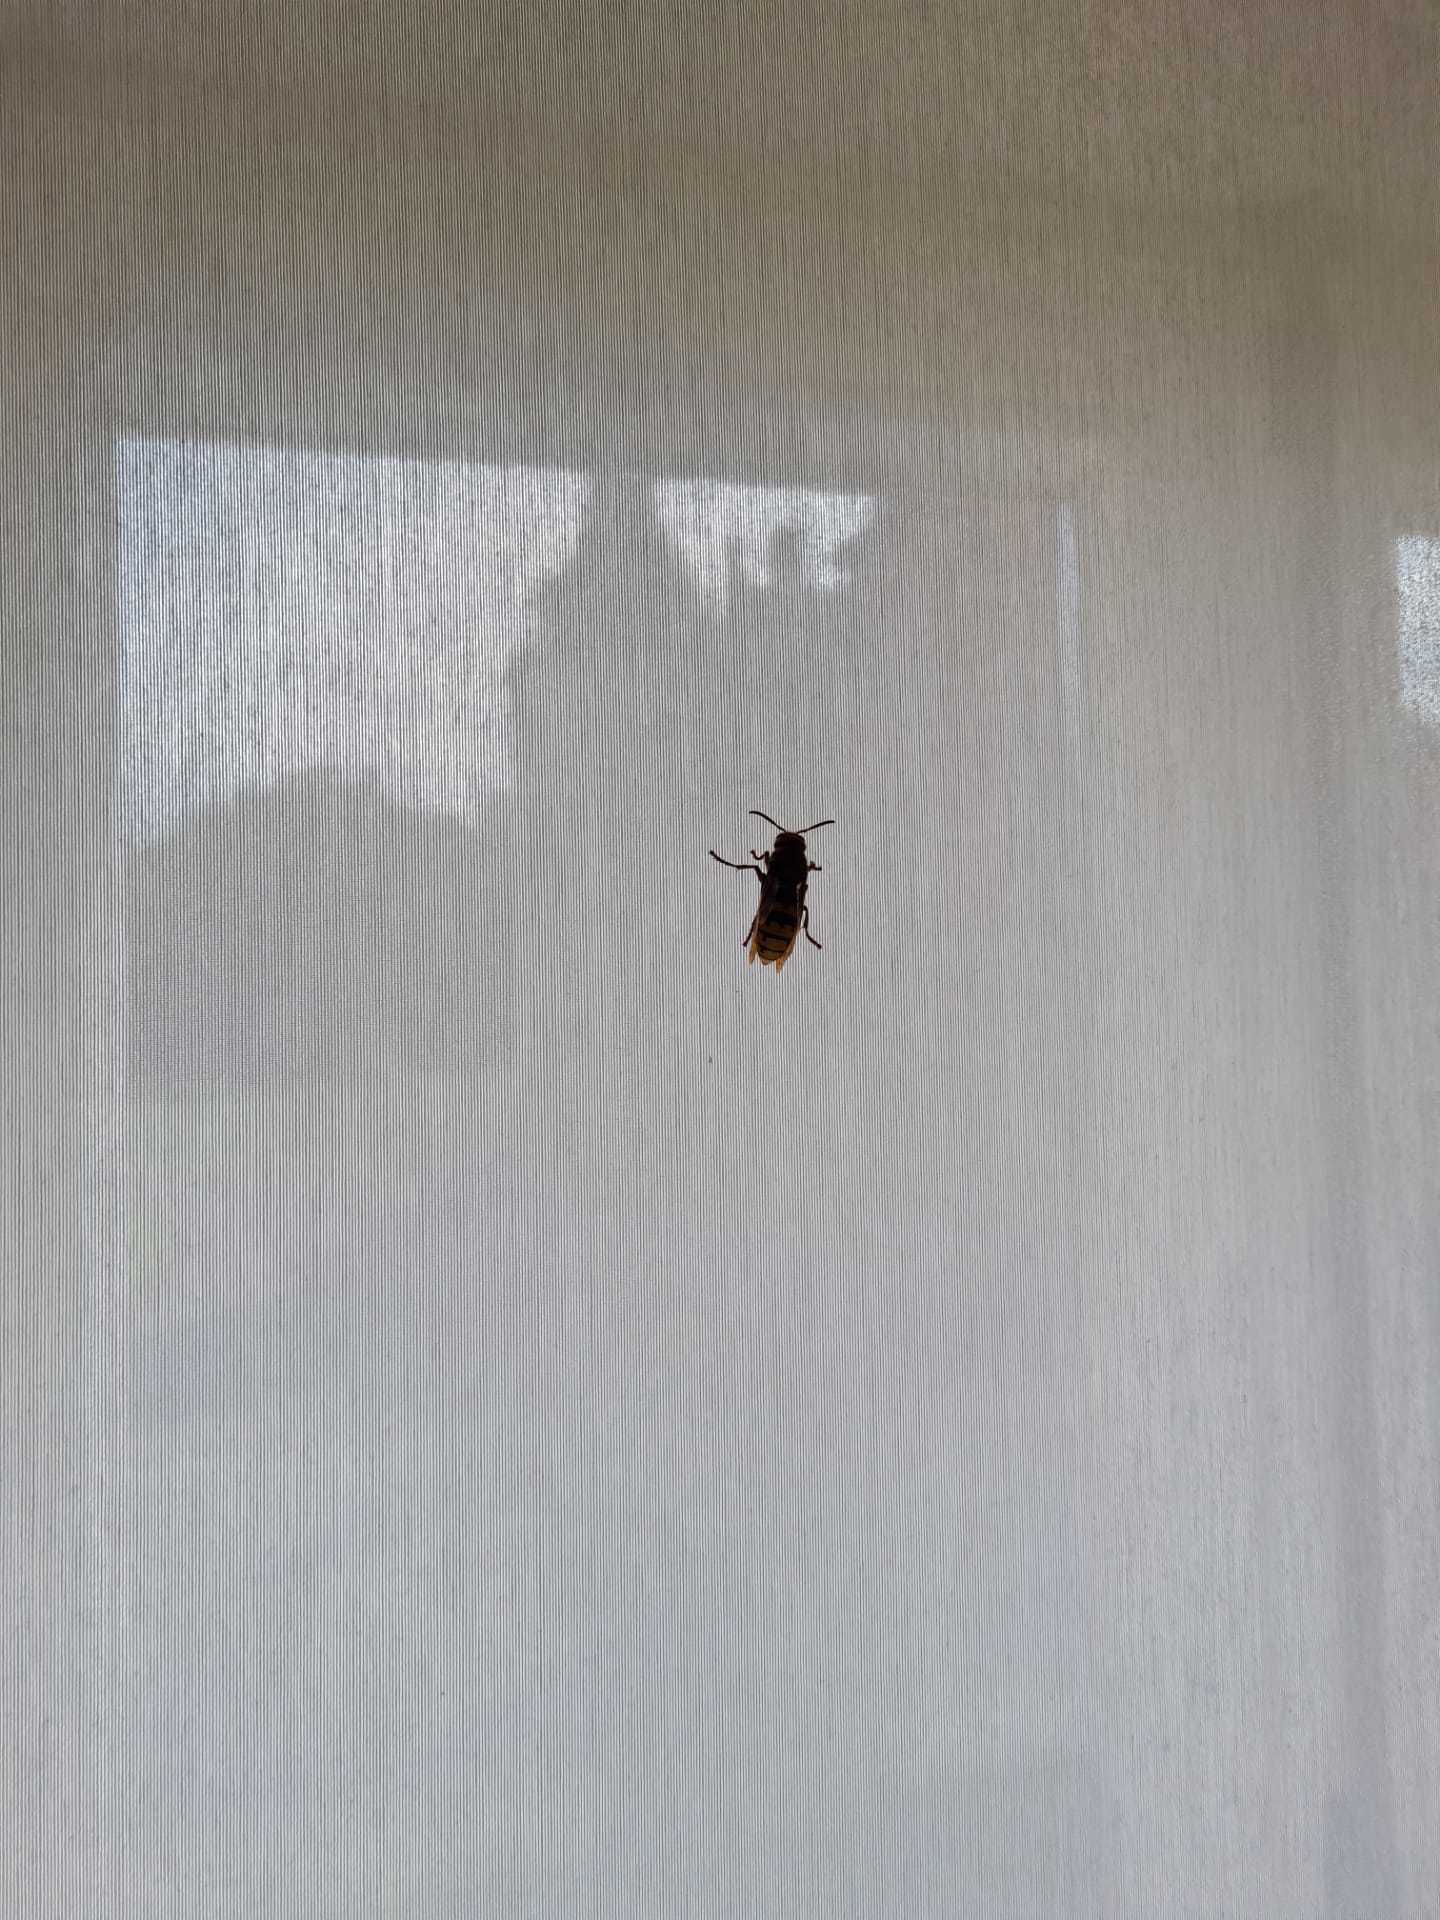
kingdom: Animalia
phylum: Arthropoda
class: Insecta
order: Hymenoptera
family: Vespidae
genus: Vespa
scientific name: Vespa crabro
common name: Hornet
